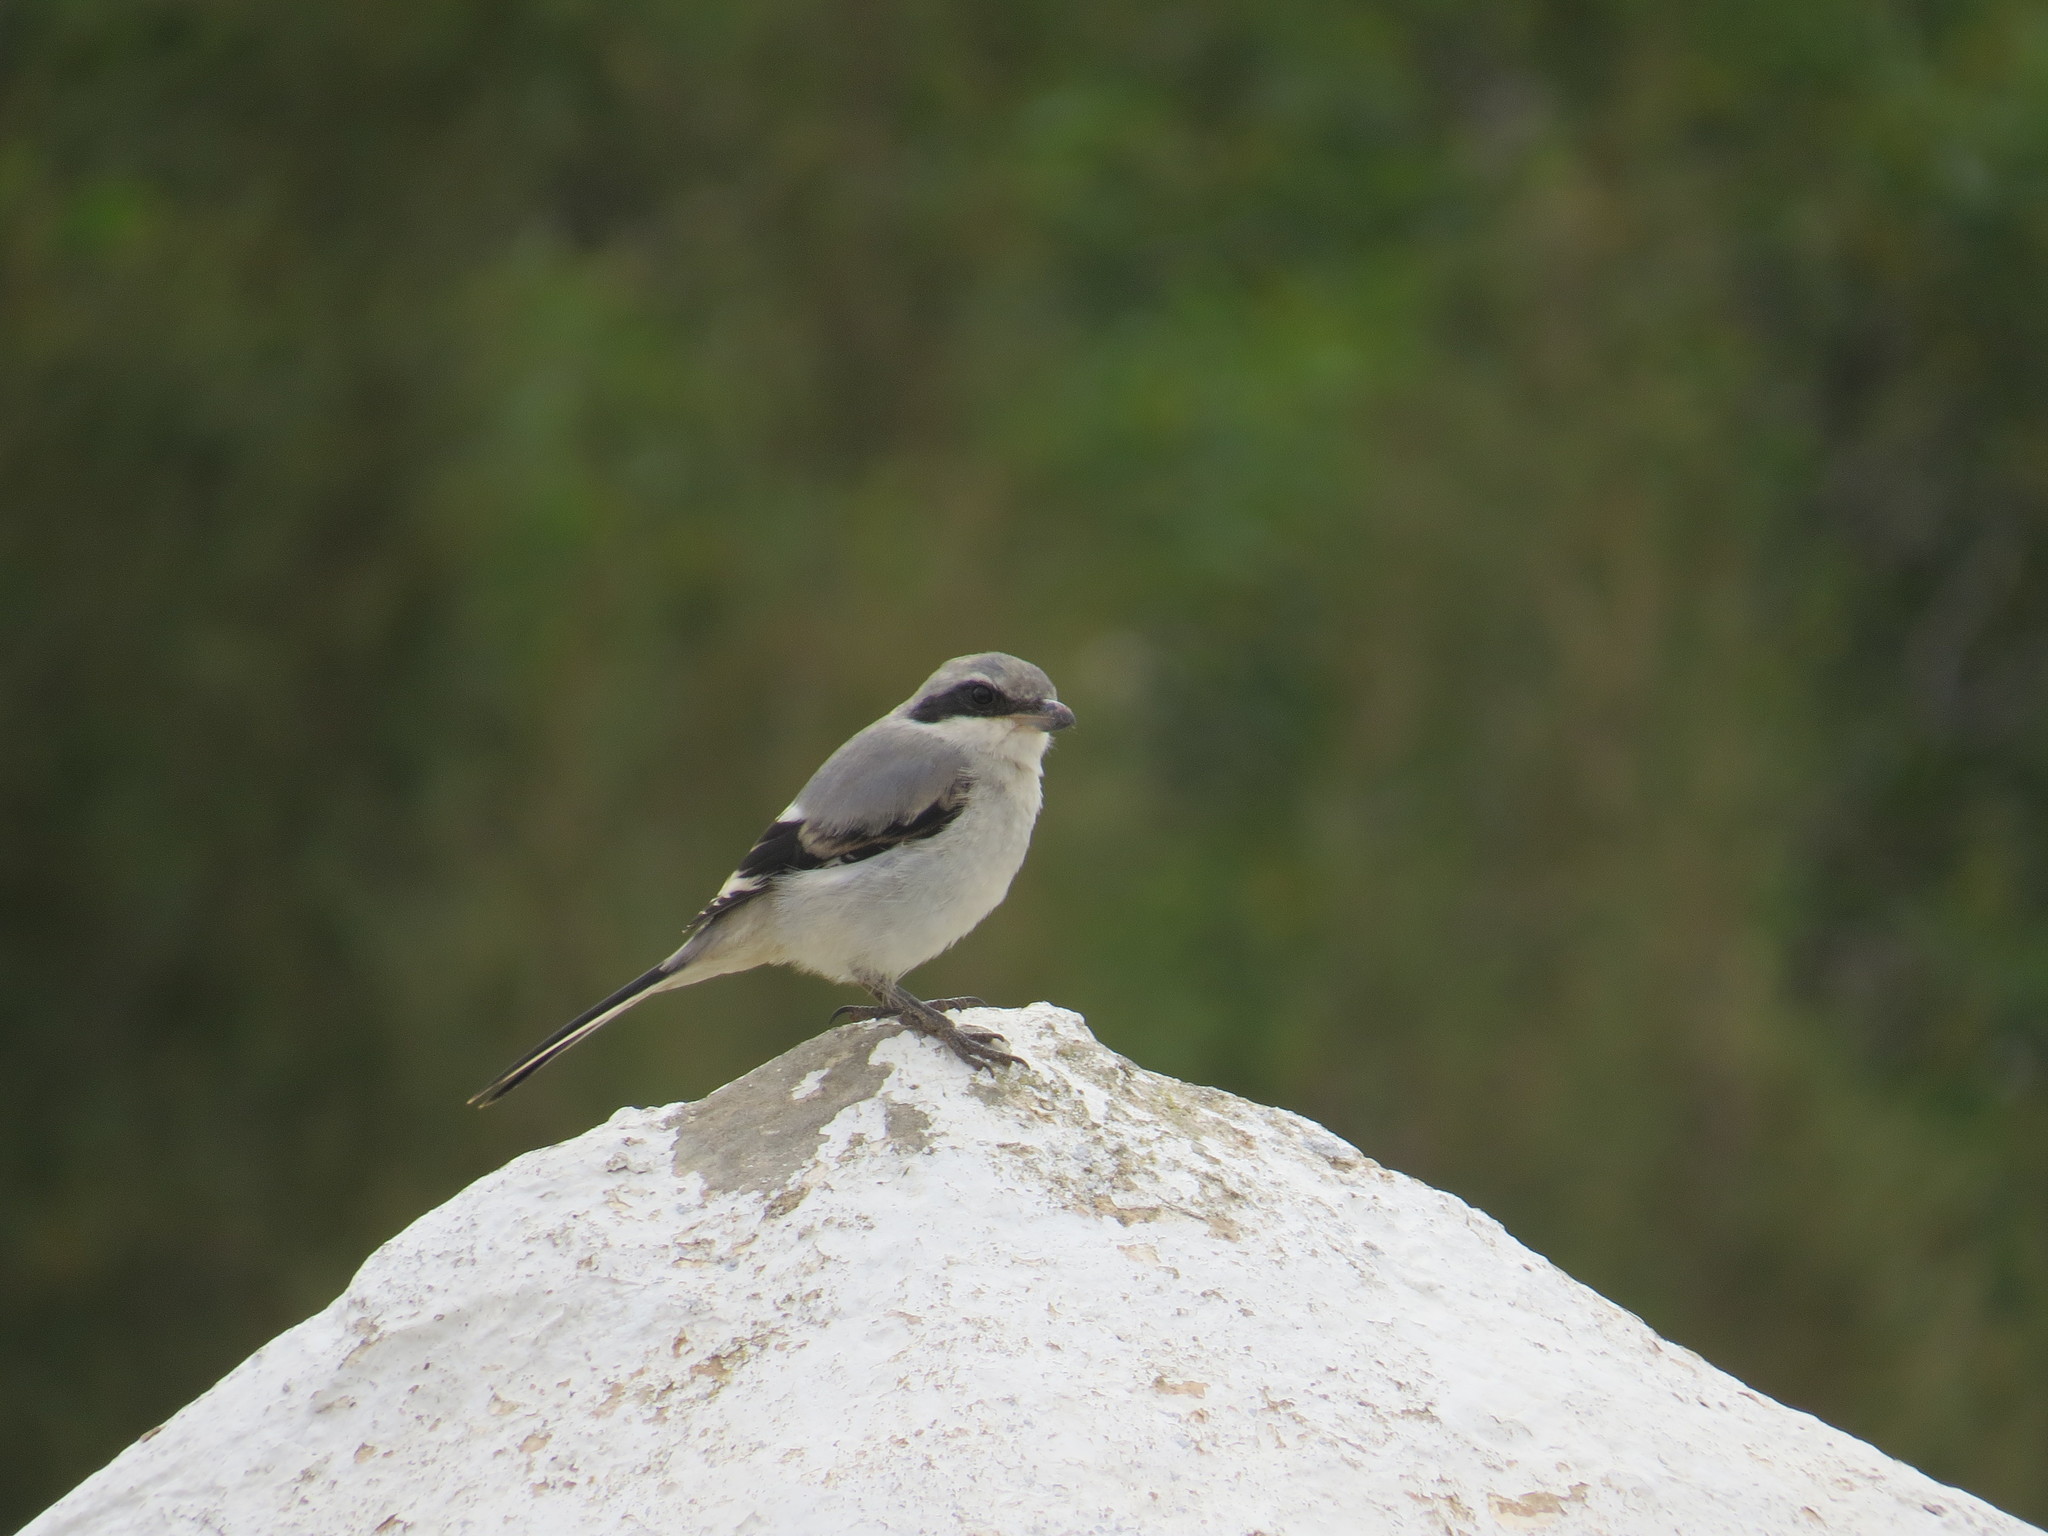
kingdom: Animalia
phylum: Chordata
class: Aves
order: Passeriformes
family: Laniidae
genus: Lanius
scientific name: Lanius excubitor
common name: Great grey shrike
